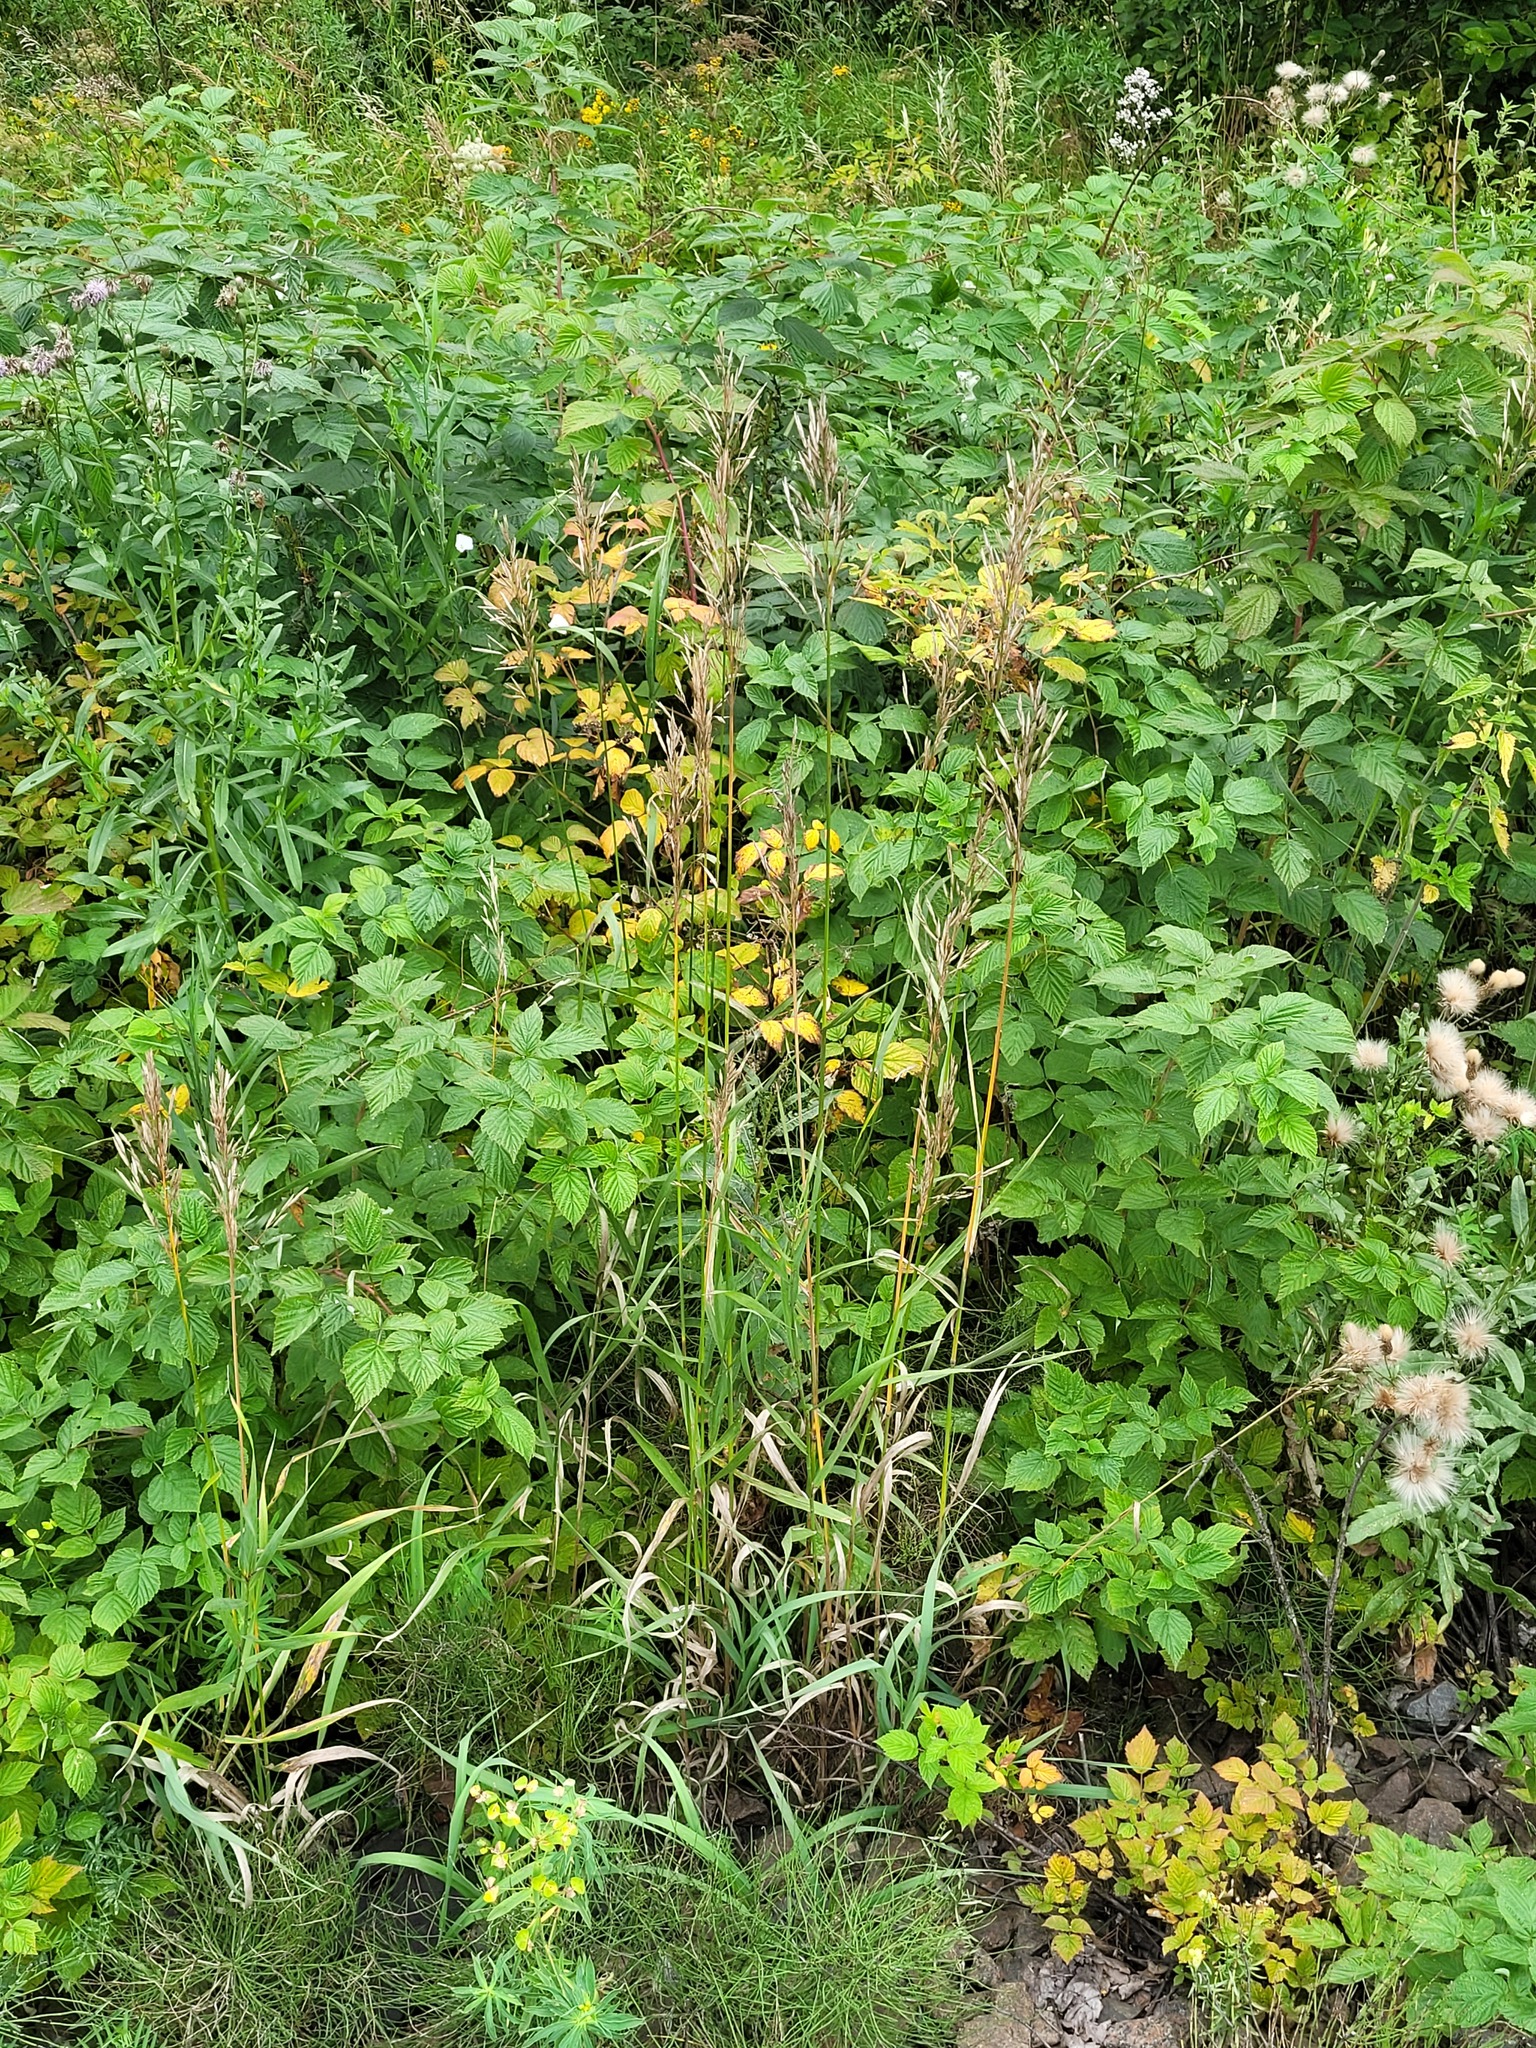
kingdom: Plantae
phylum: Tracheophyta
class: Liliopsida
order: Poales
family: Poaceae
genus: Bromus
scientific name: Bromus inermis
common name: Smooth brome
